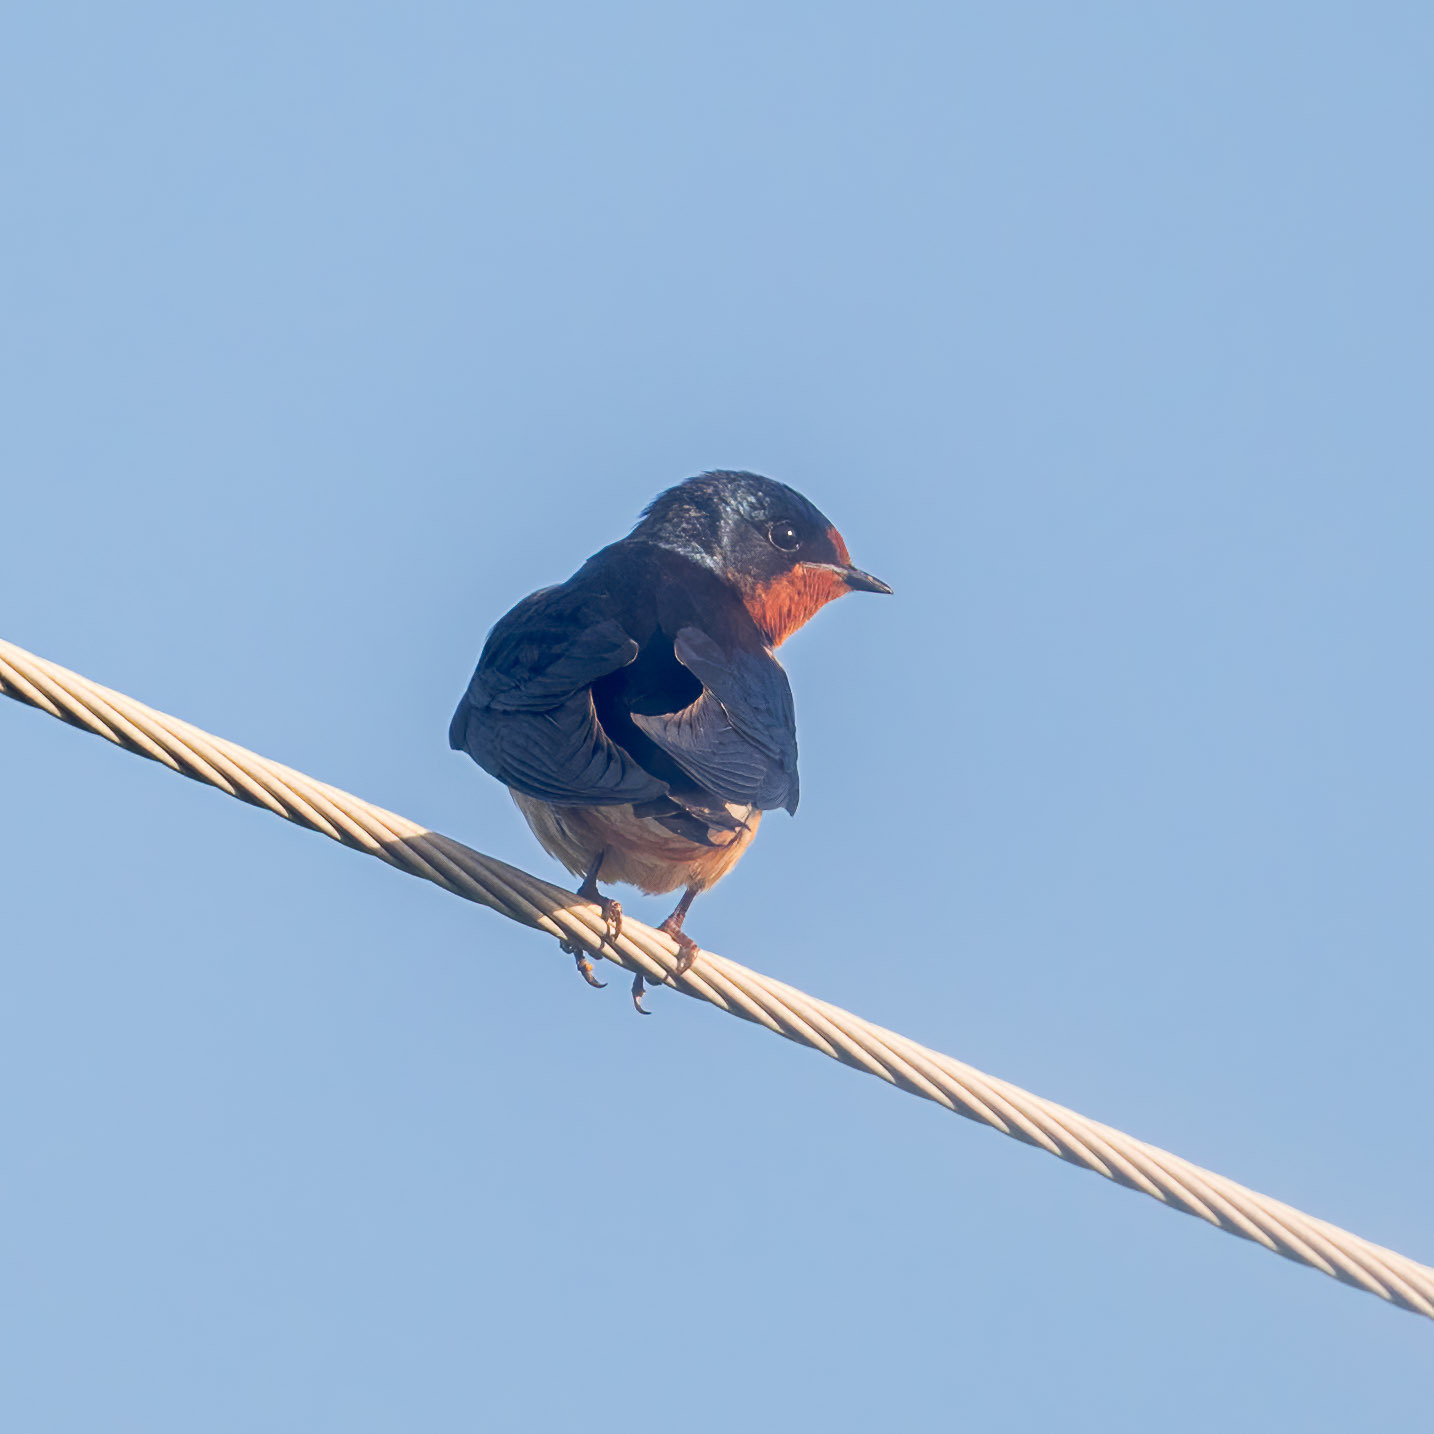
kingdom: Animalia
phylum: Chordata
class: Aves
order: Passeriformes
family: Hirundinidae
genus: Hirundo
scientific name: Hirundo rustica
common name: Barn swallow
